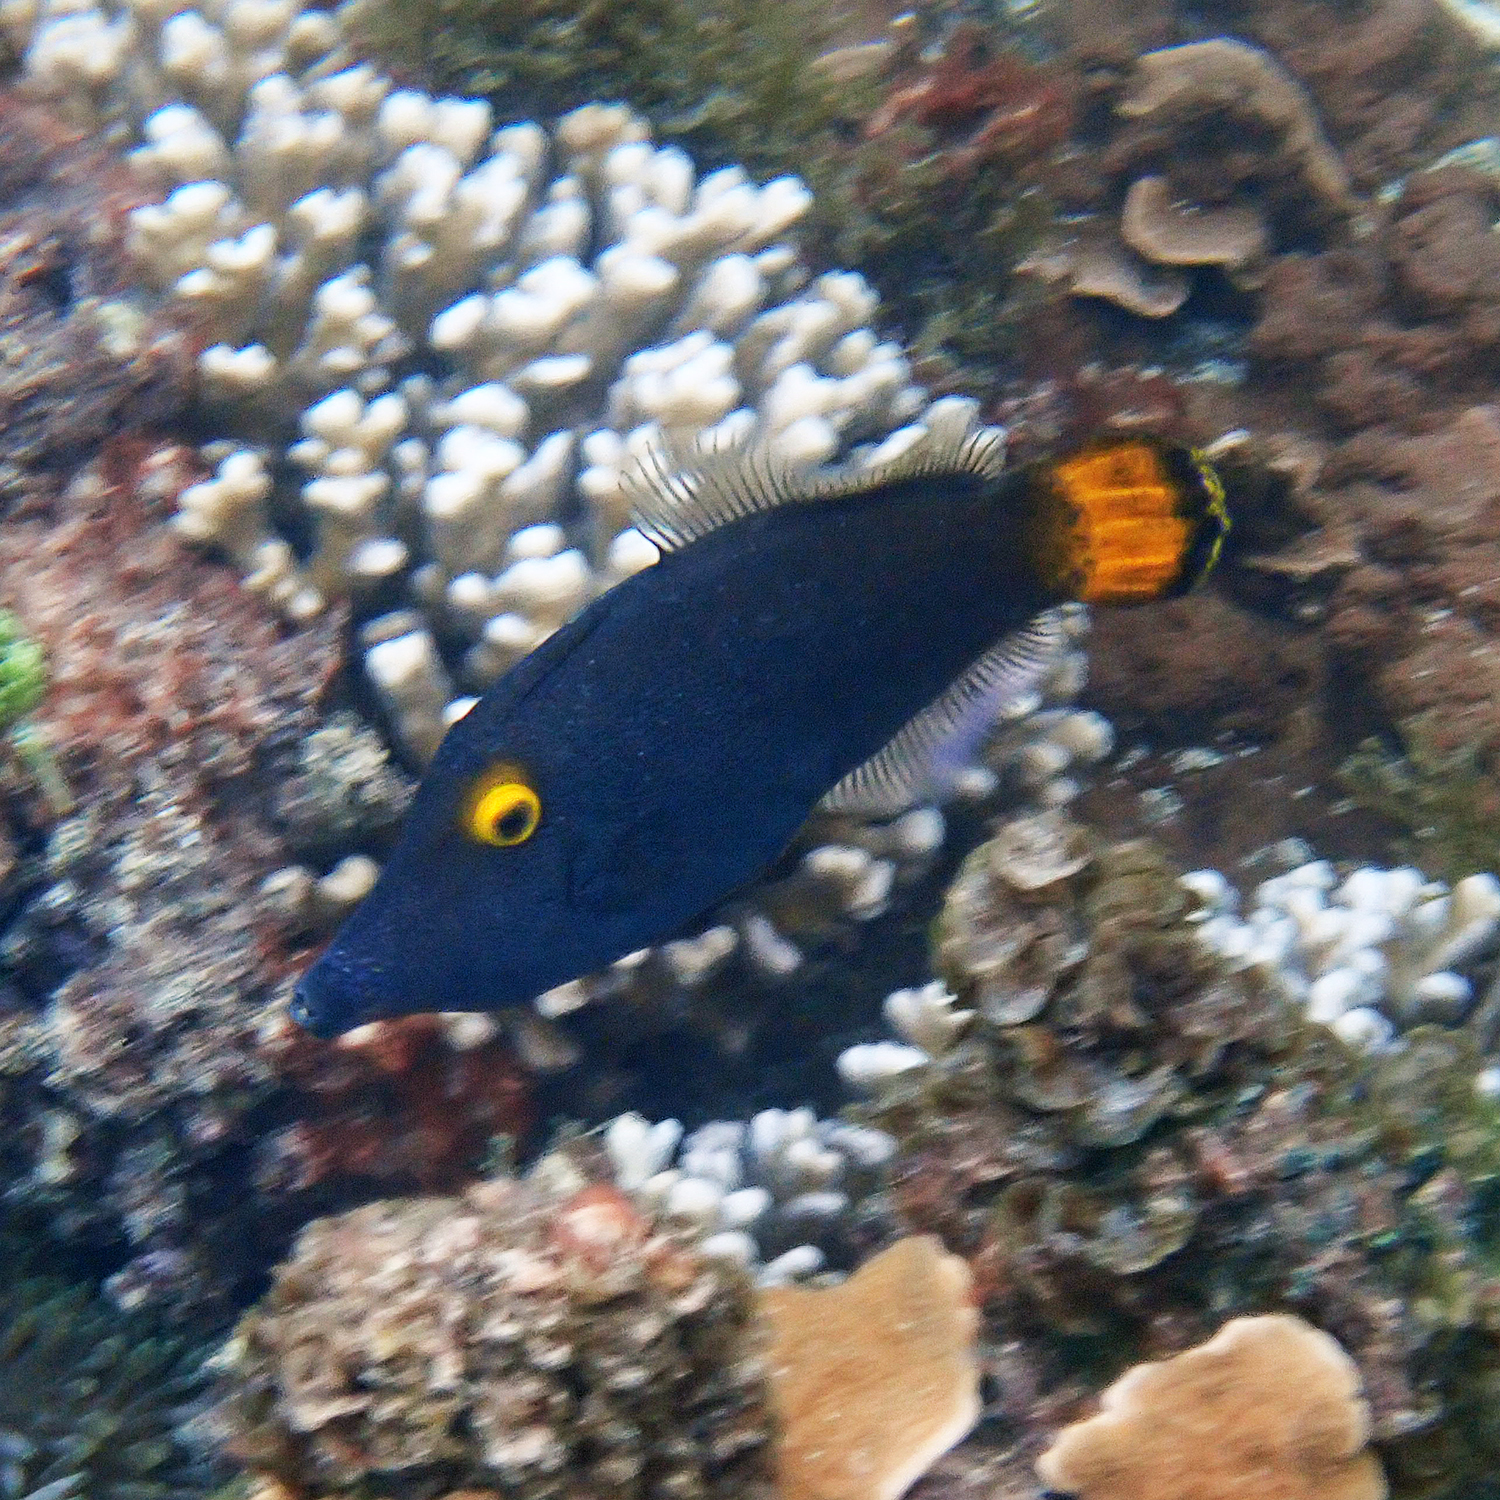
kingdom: Animalia
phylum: Chordata
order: Tetraodontiformes
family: Monacanthidae
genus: Pervagor
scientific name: Pervagor alternans
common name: Yelloweye filefish
